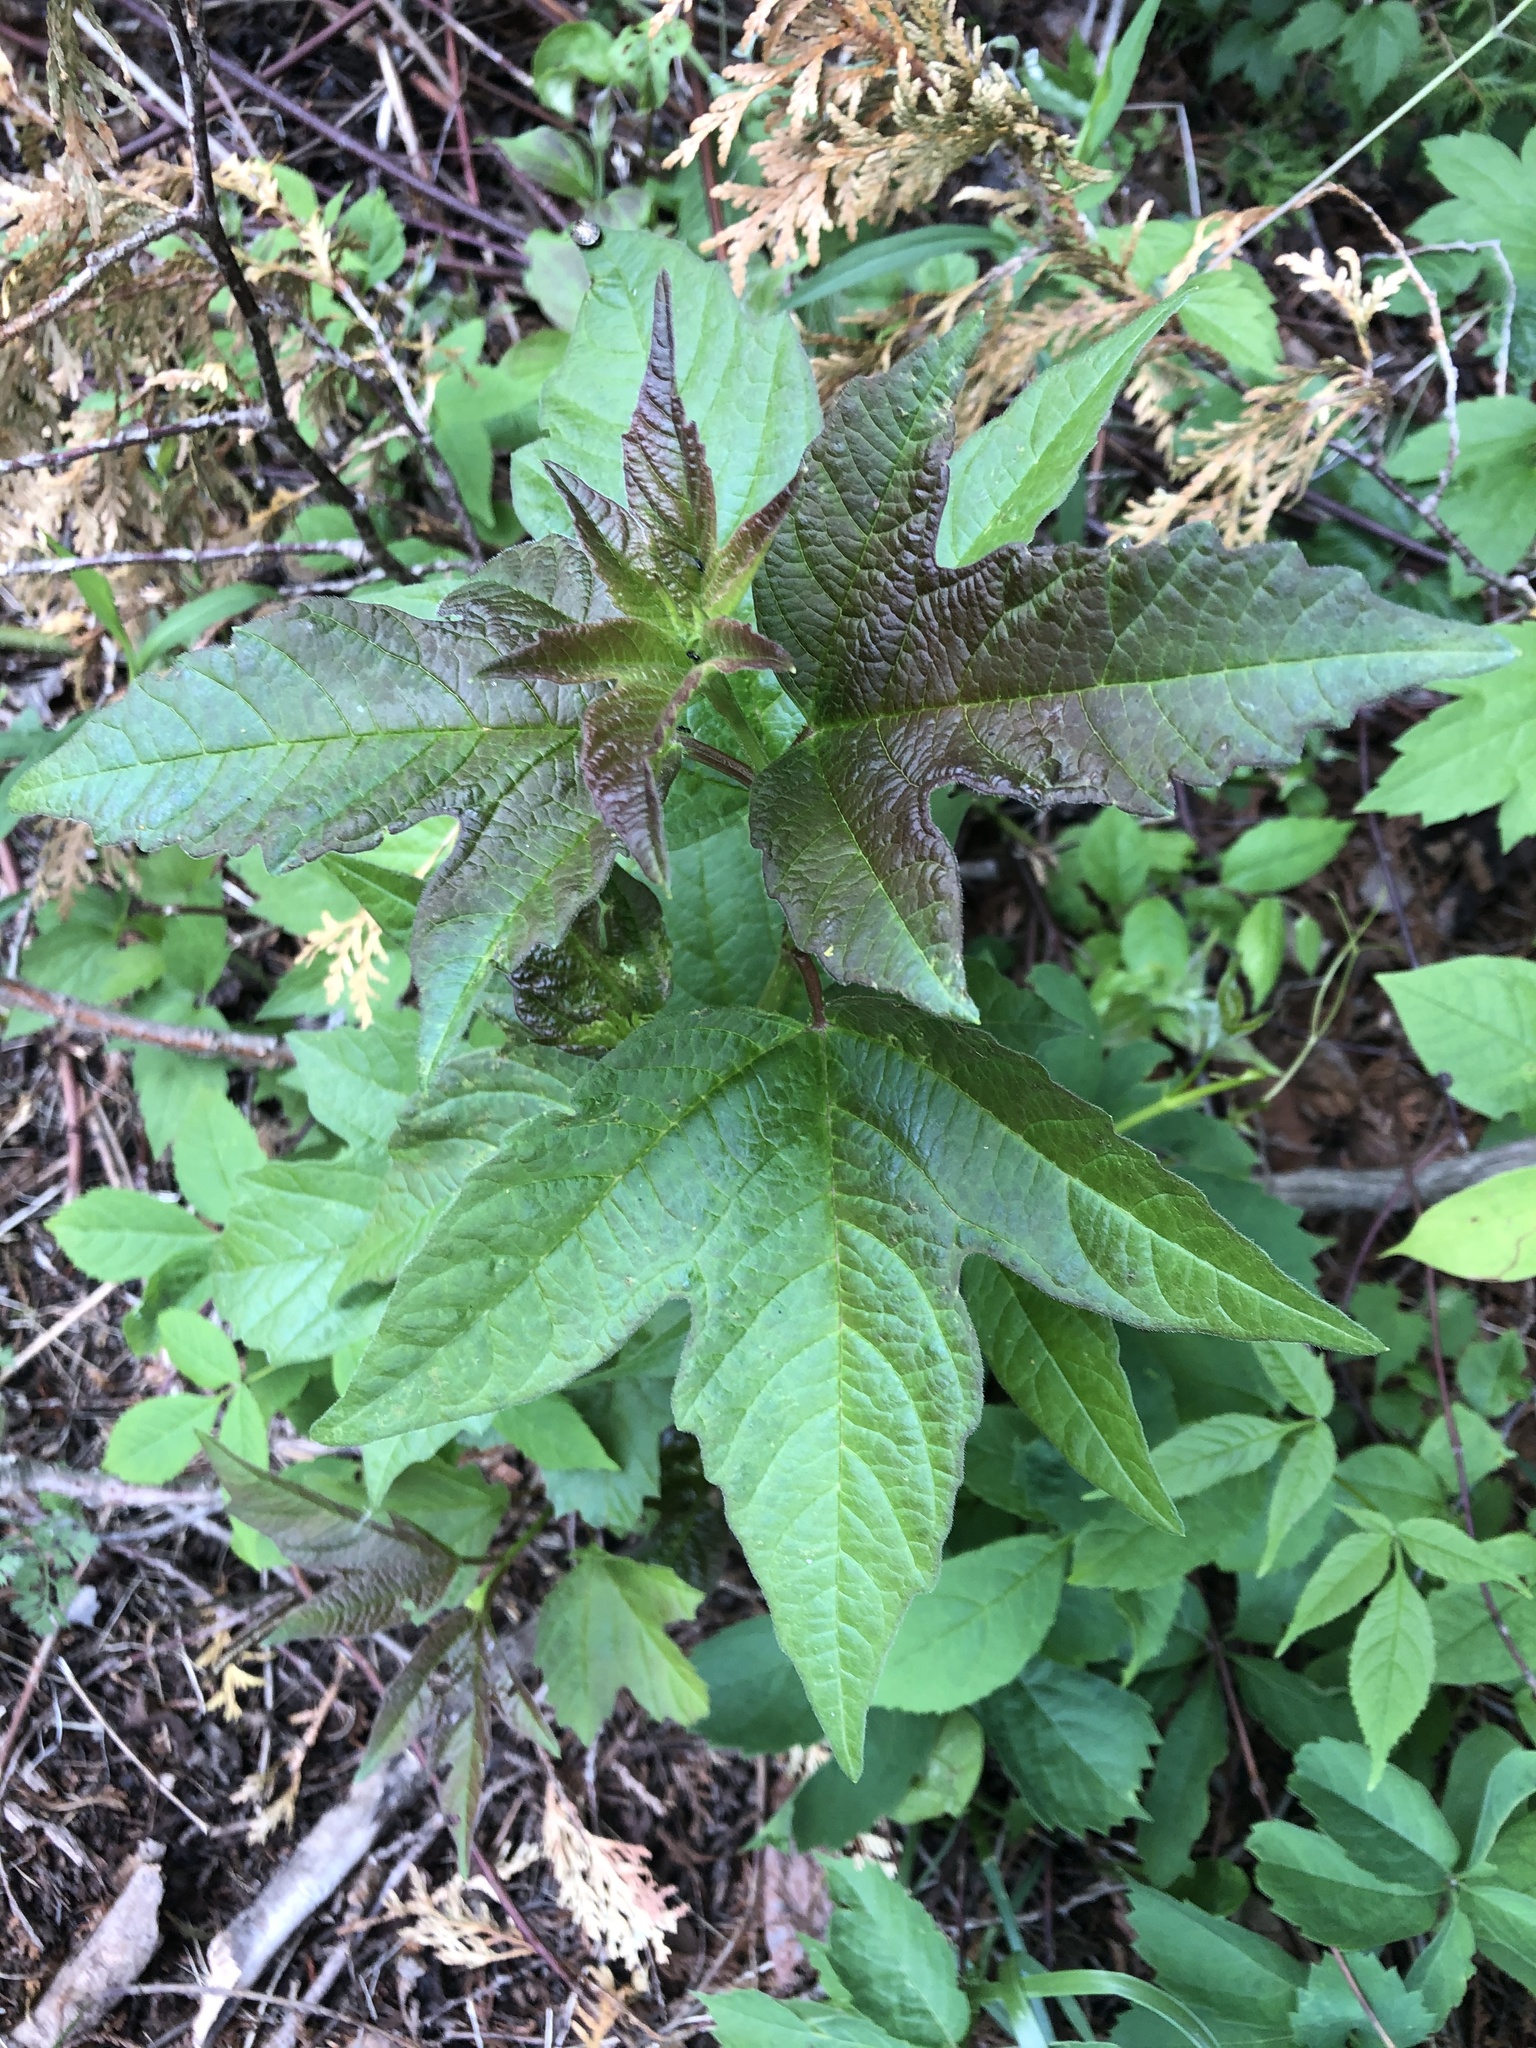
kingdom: Plantae
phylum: Tracheophyta
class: Magnoliopsida
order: Asterales
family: Asteraceae
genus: Ambrosia
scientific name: Ambrosia trifida
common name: Giant ragweed
